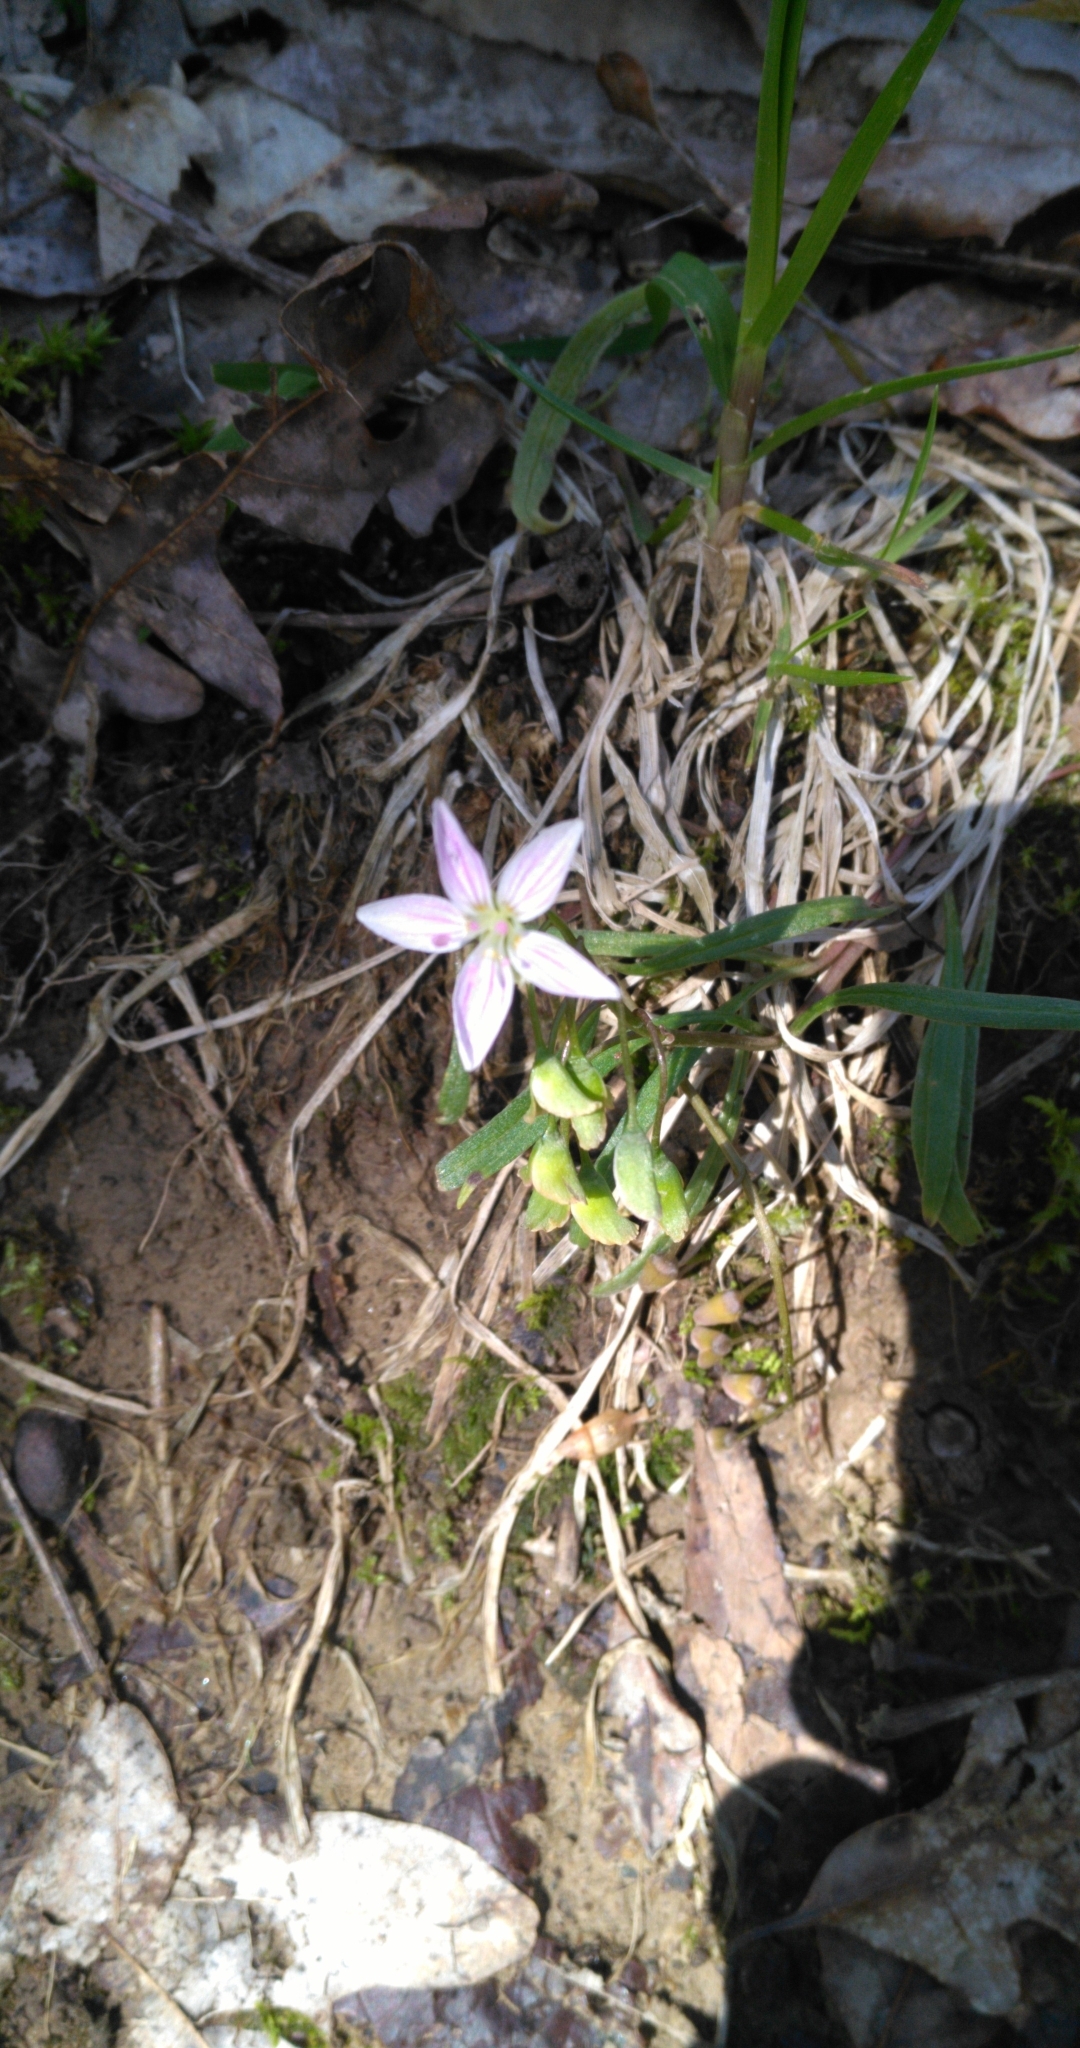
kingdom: Plantae
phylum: Tracheophyta
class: Magnoliopsida
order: Caryophyllales
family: Montiaceae
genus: Claytonia
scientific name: Claytonia virginica
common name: Virginia springbeauty
